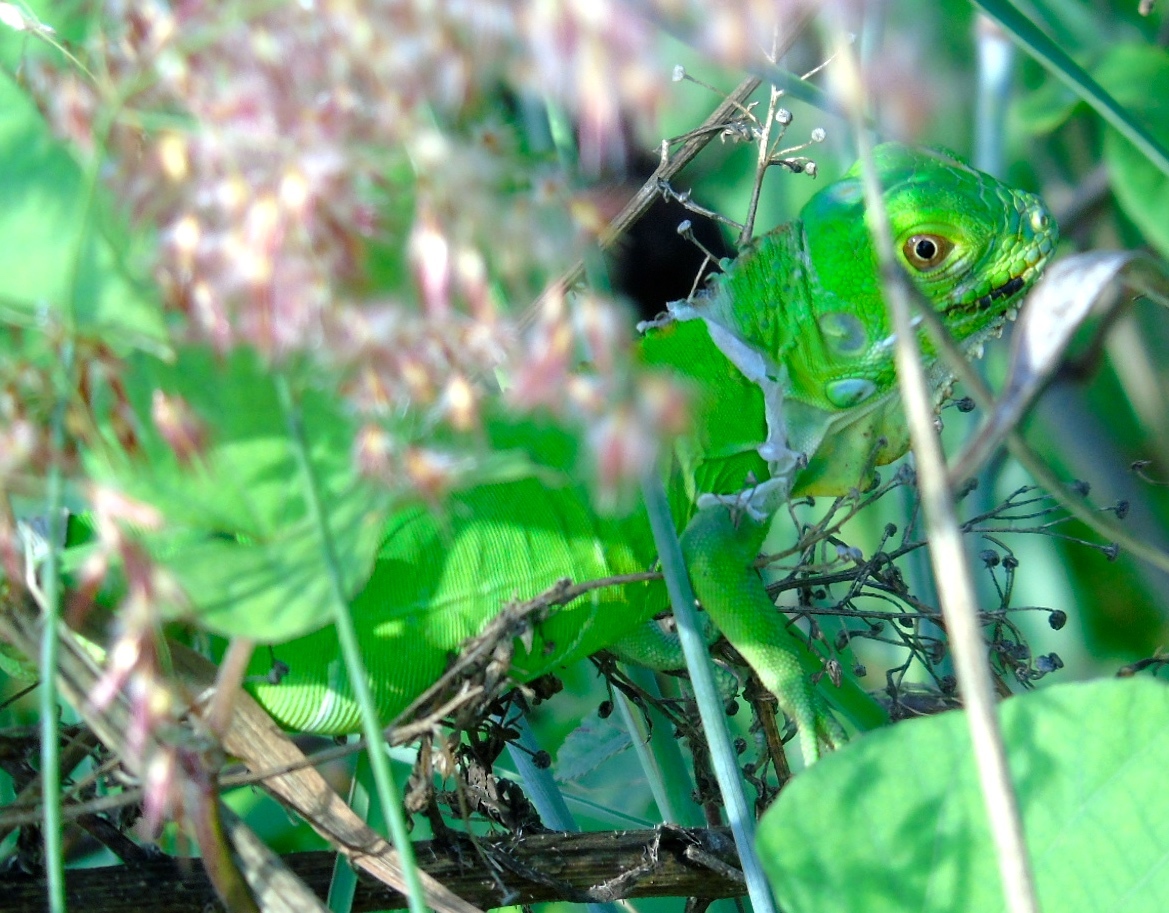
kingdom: Animalia
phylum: Chordata
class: Squamata
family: Iguanidae
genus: Iguana
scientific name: Iguana iguana
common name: Green iguana
